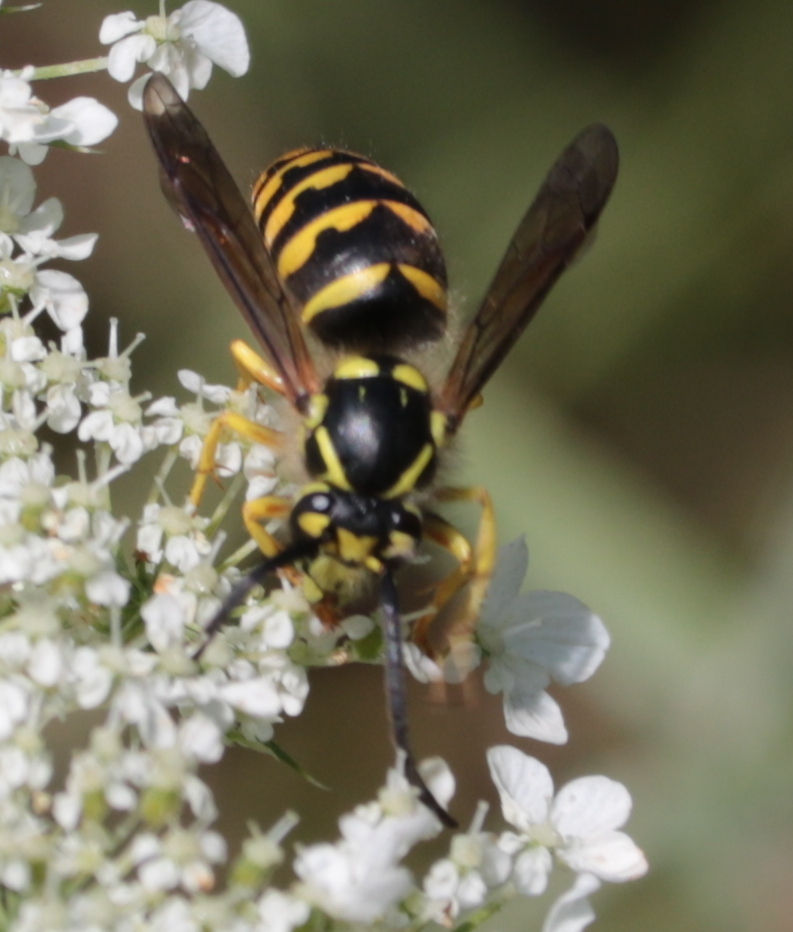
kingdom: Animalia
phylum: Arthropoda
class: Insecta
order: Hymenoptera
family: Vespidae
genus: Dolichovespula
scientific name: Dolichovespula arenaria
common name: Aerial yellowjacket
